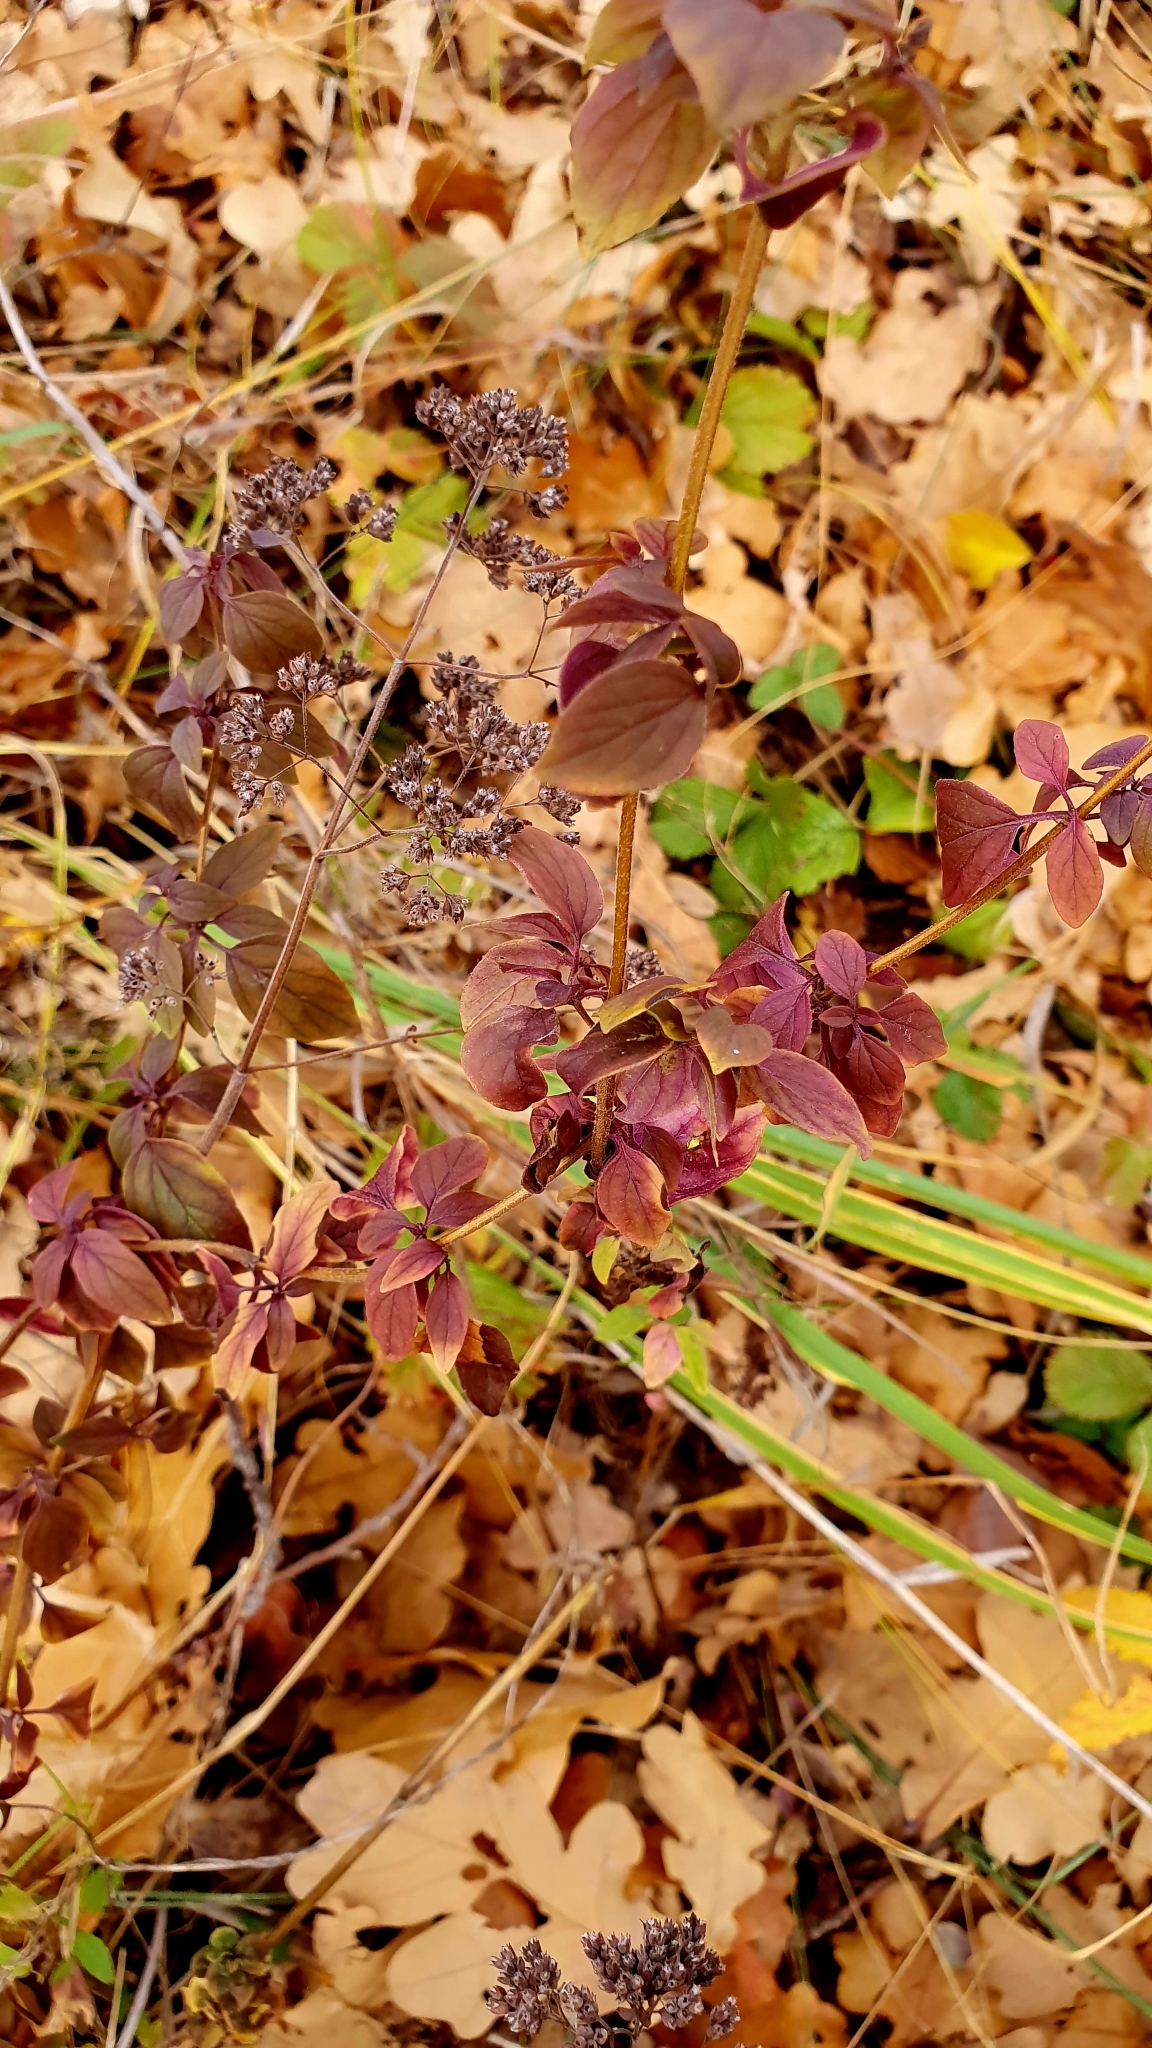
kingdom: Plantae
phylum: Tracheophyta
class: Magnoliopsida
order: Lamiales
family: Lamiaceae
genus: Origanum
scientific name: Origanum vulgare
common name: Wild marjoram
